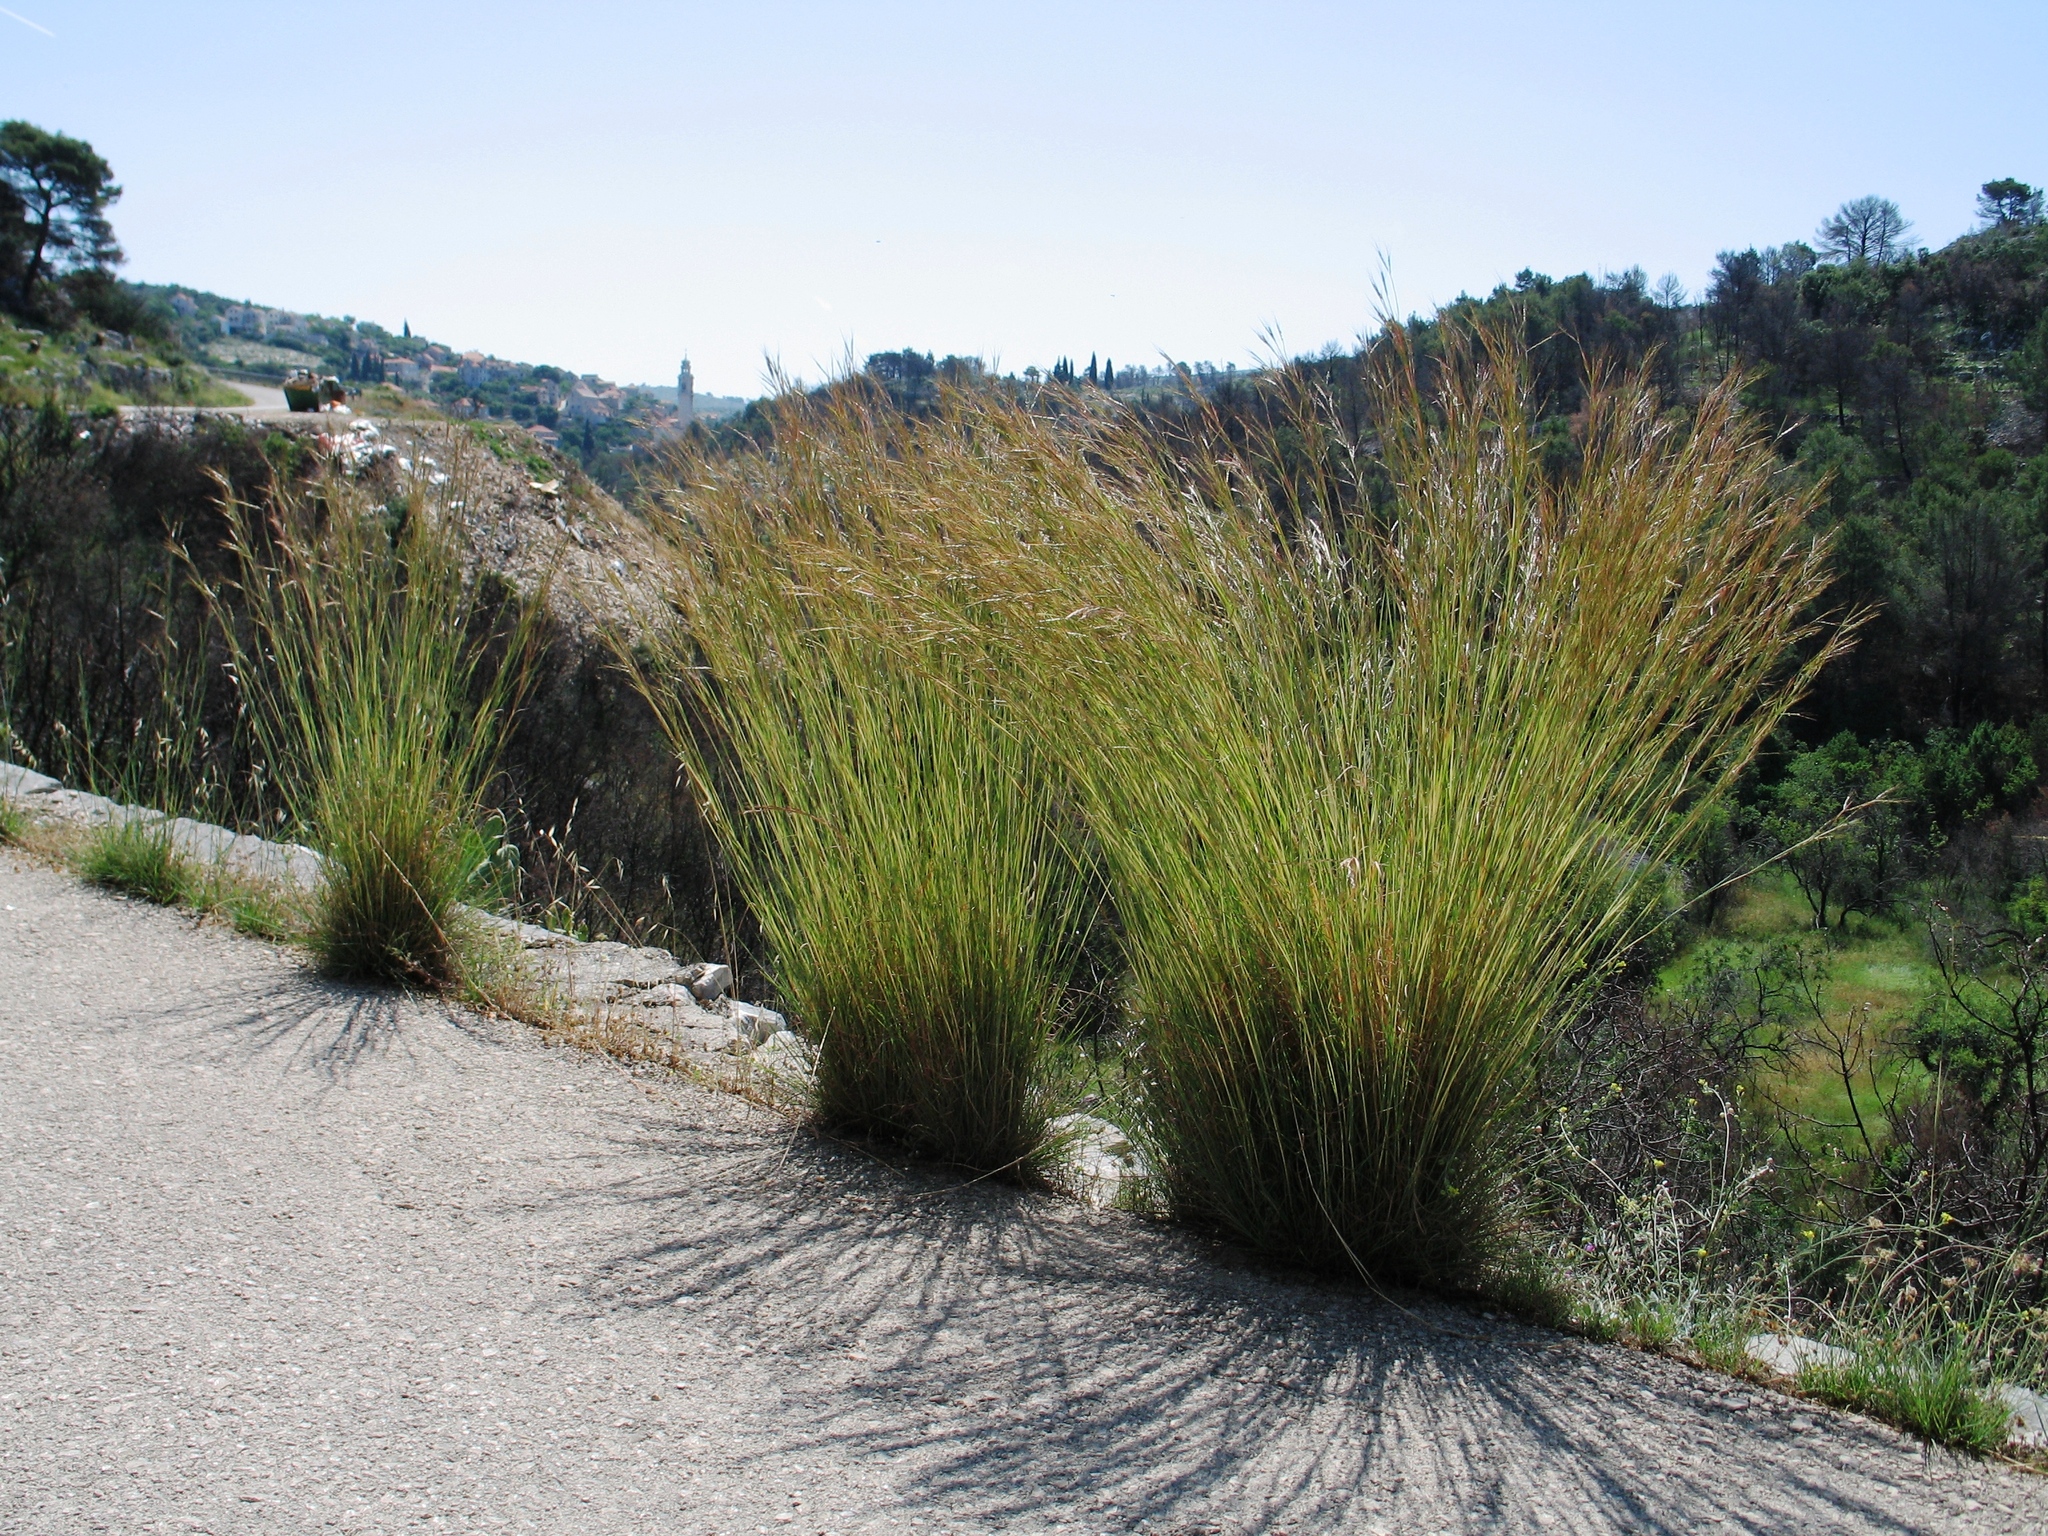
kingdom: Plantae
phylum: Tracheophyta
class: Liliopsida
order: Poales
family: Poaceae
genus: Hyparrhenia
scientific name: Hyparrhenia hirta
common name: Thatching grass
